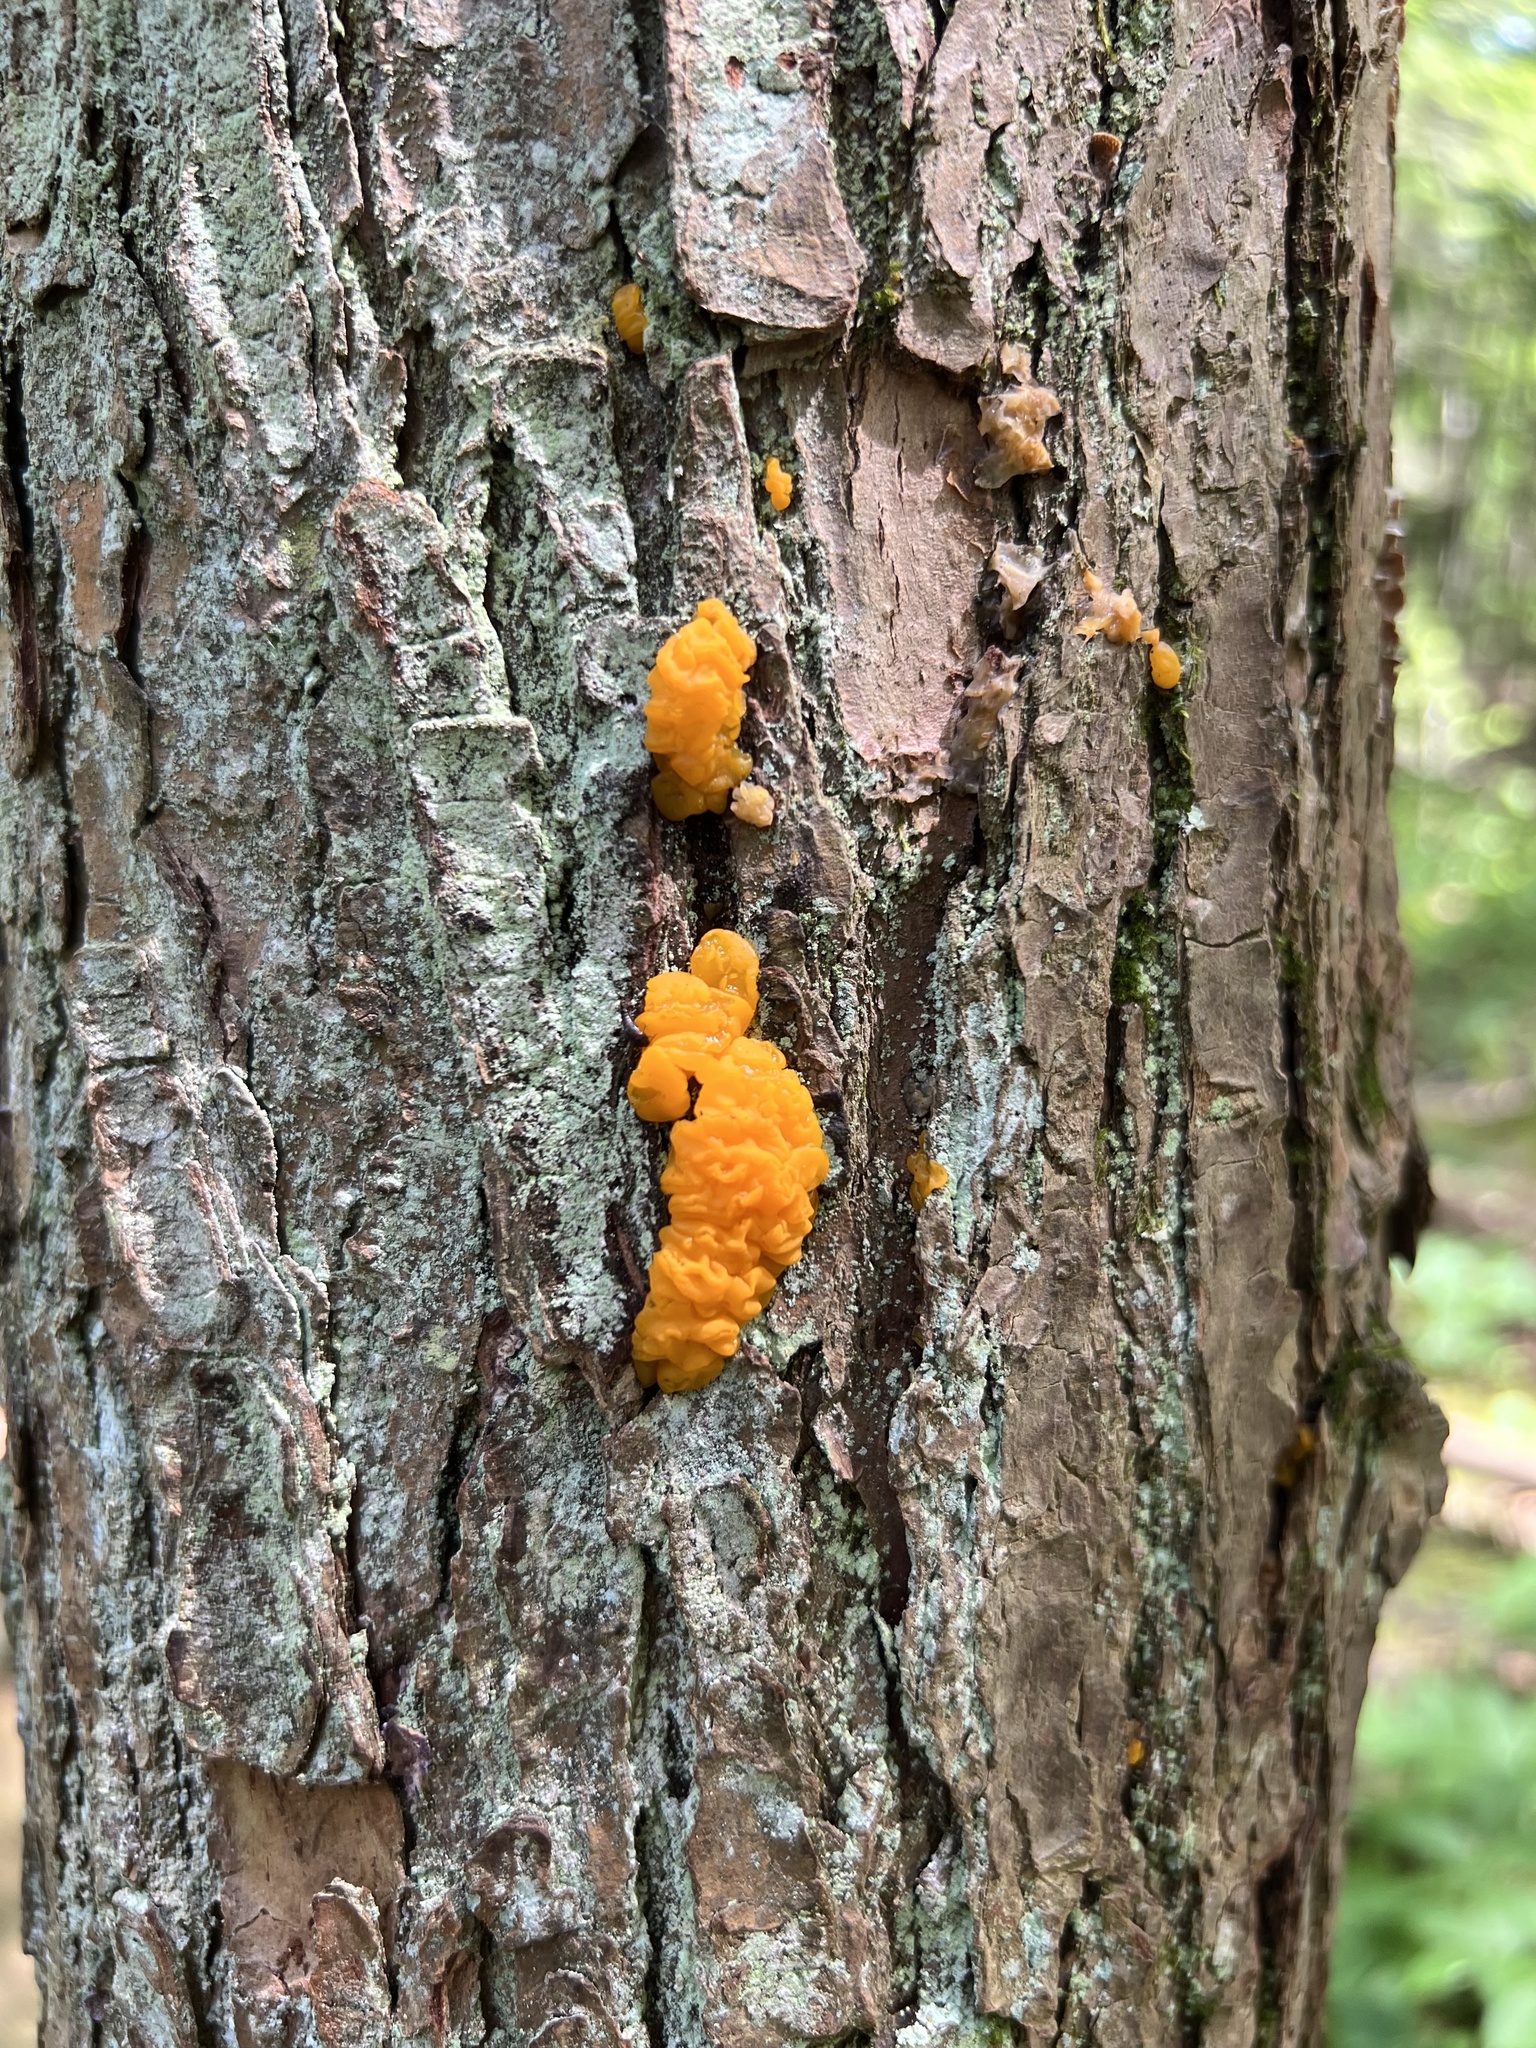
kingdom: Fungi
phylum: Basidiomycota
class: Dacrymycetes
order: Dacrymycetales
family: Dacrymycetaceae
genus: Dacrymyces
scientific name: Dacrymyces chrysospermus
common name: Orange jelly spot
